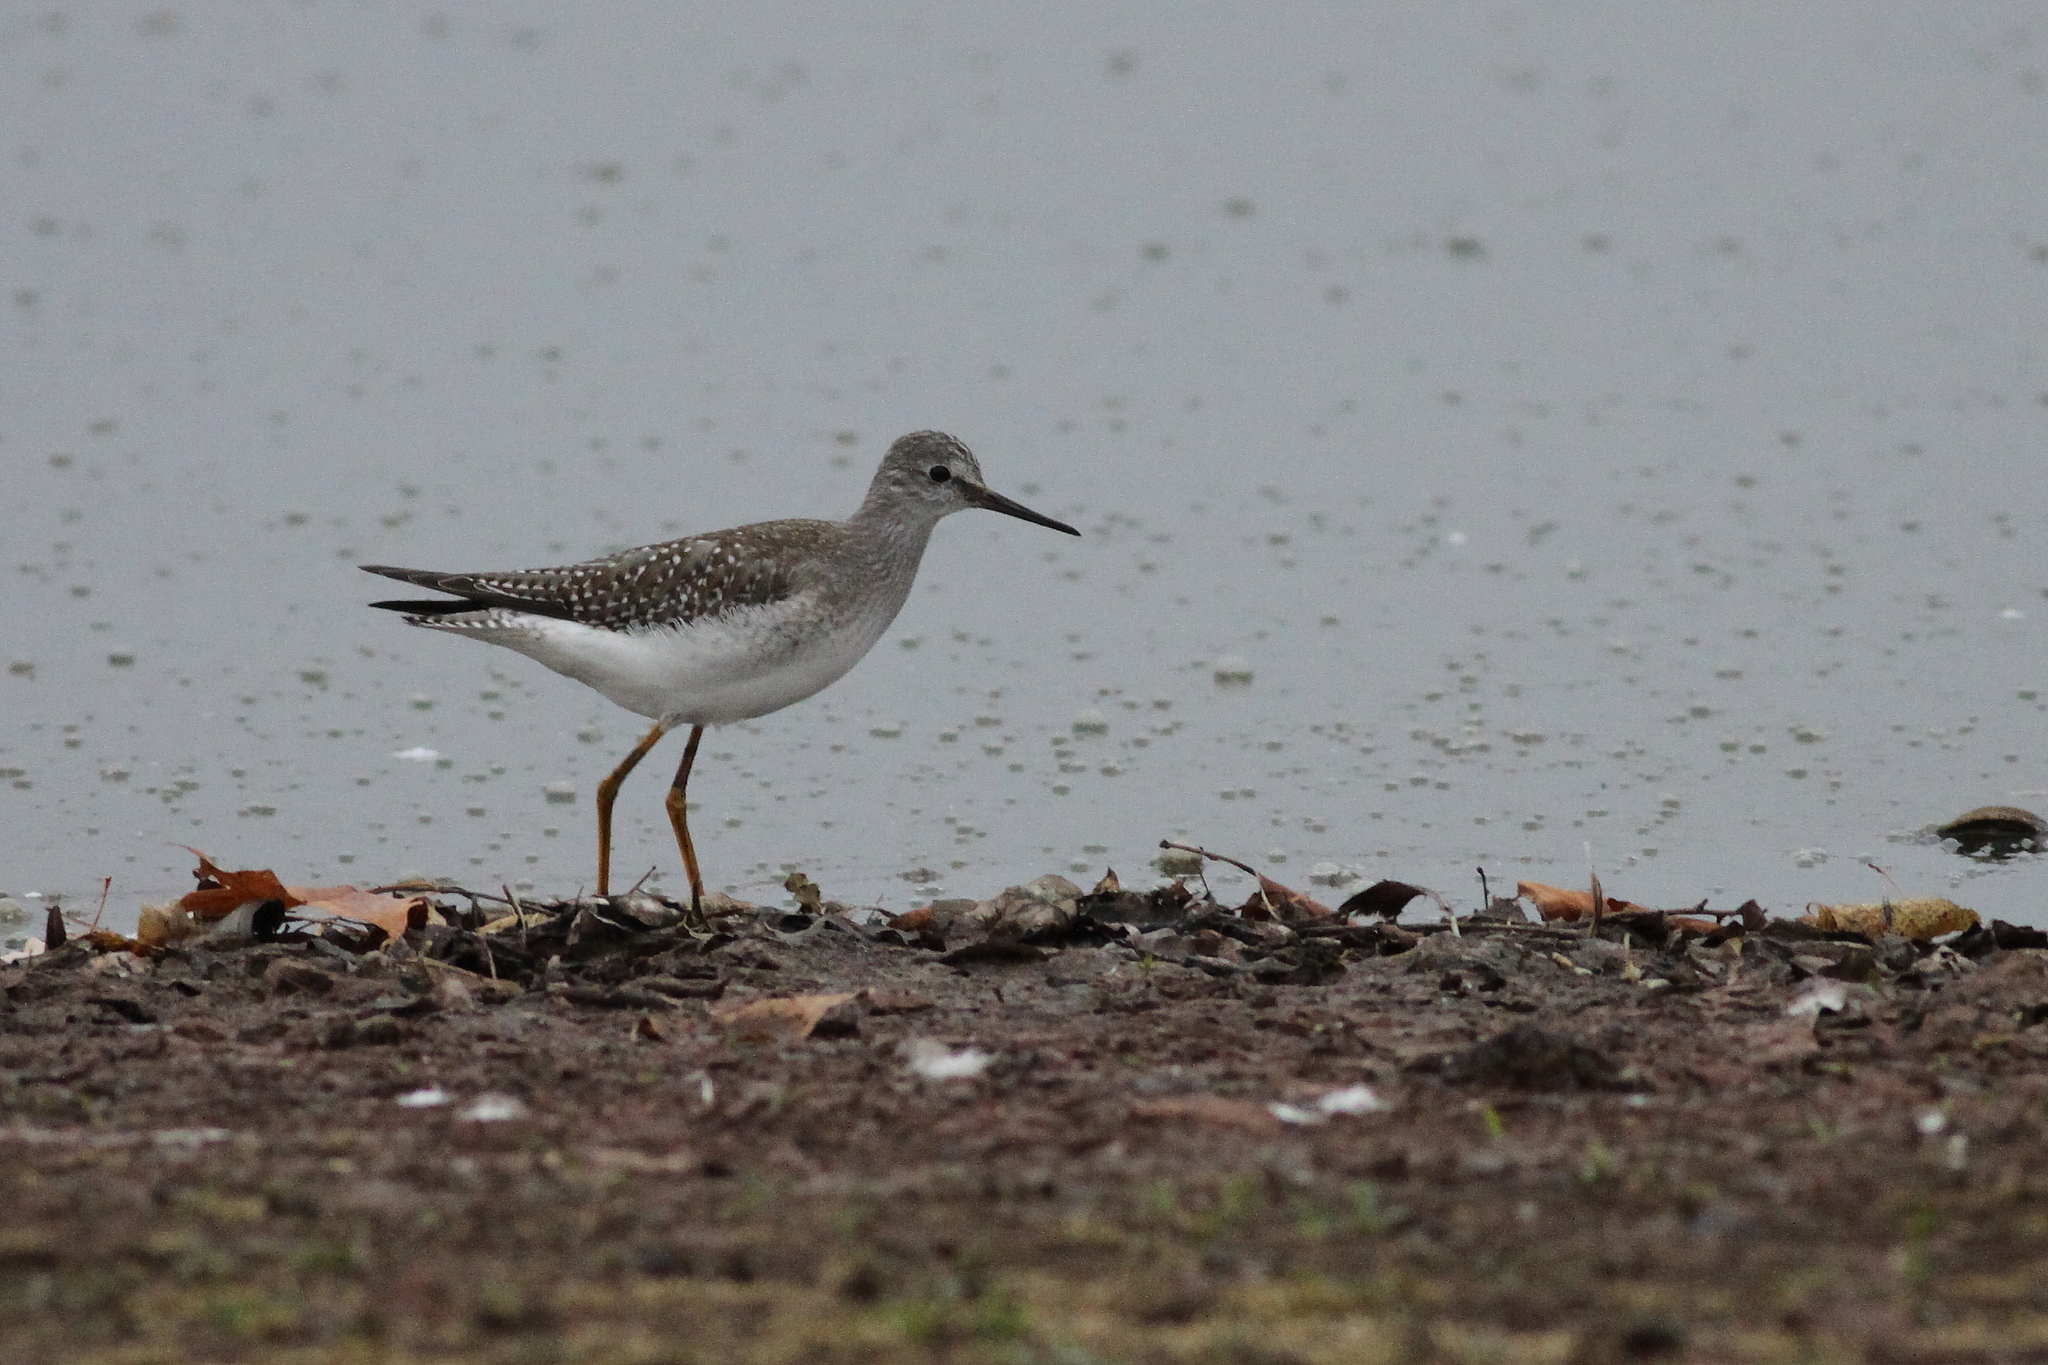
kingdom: Animalia
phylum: Chordata
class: Aves
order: Charadriiformes
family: Scolopacidae
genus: Tringa
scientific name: Tringa flavipes
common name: Lesser yellowlegs
